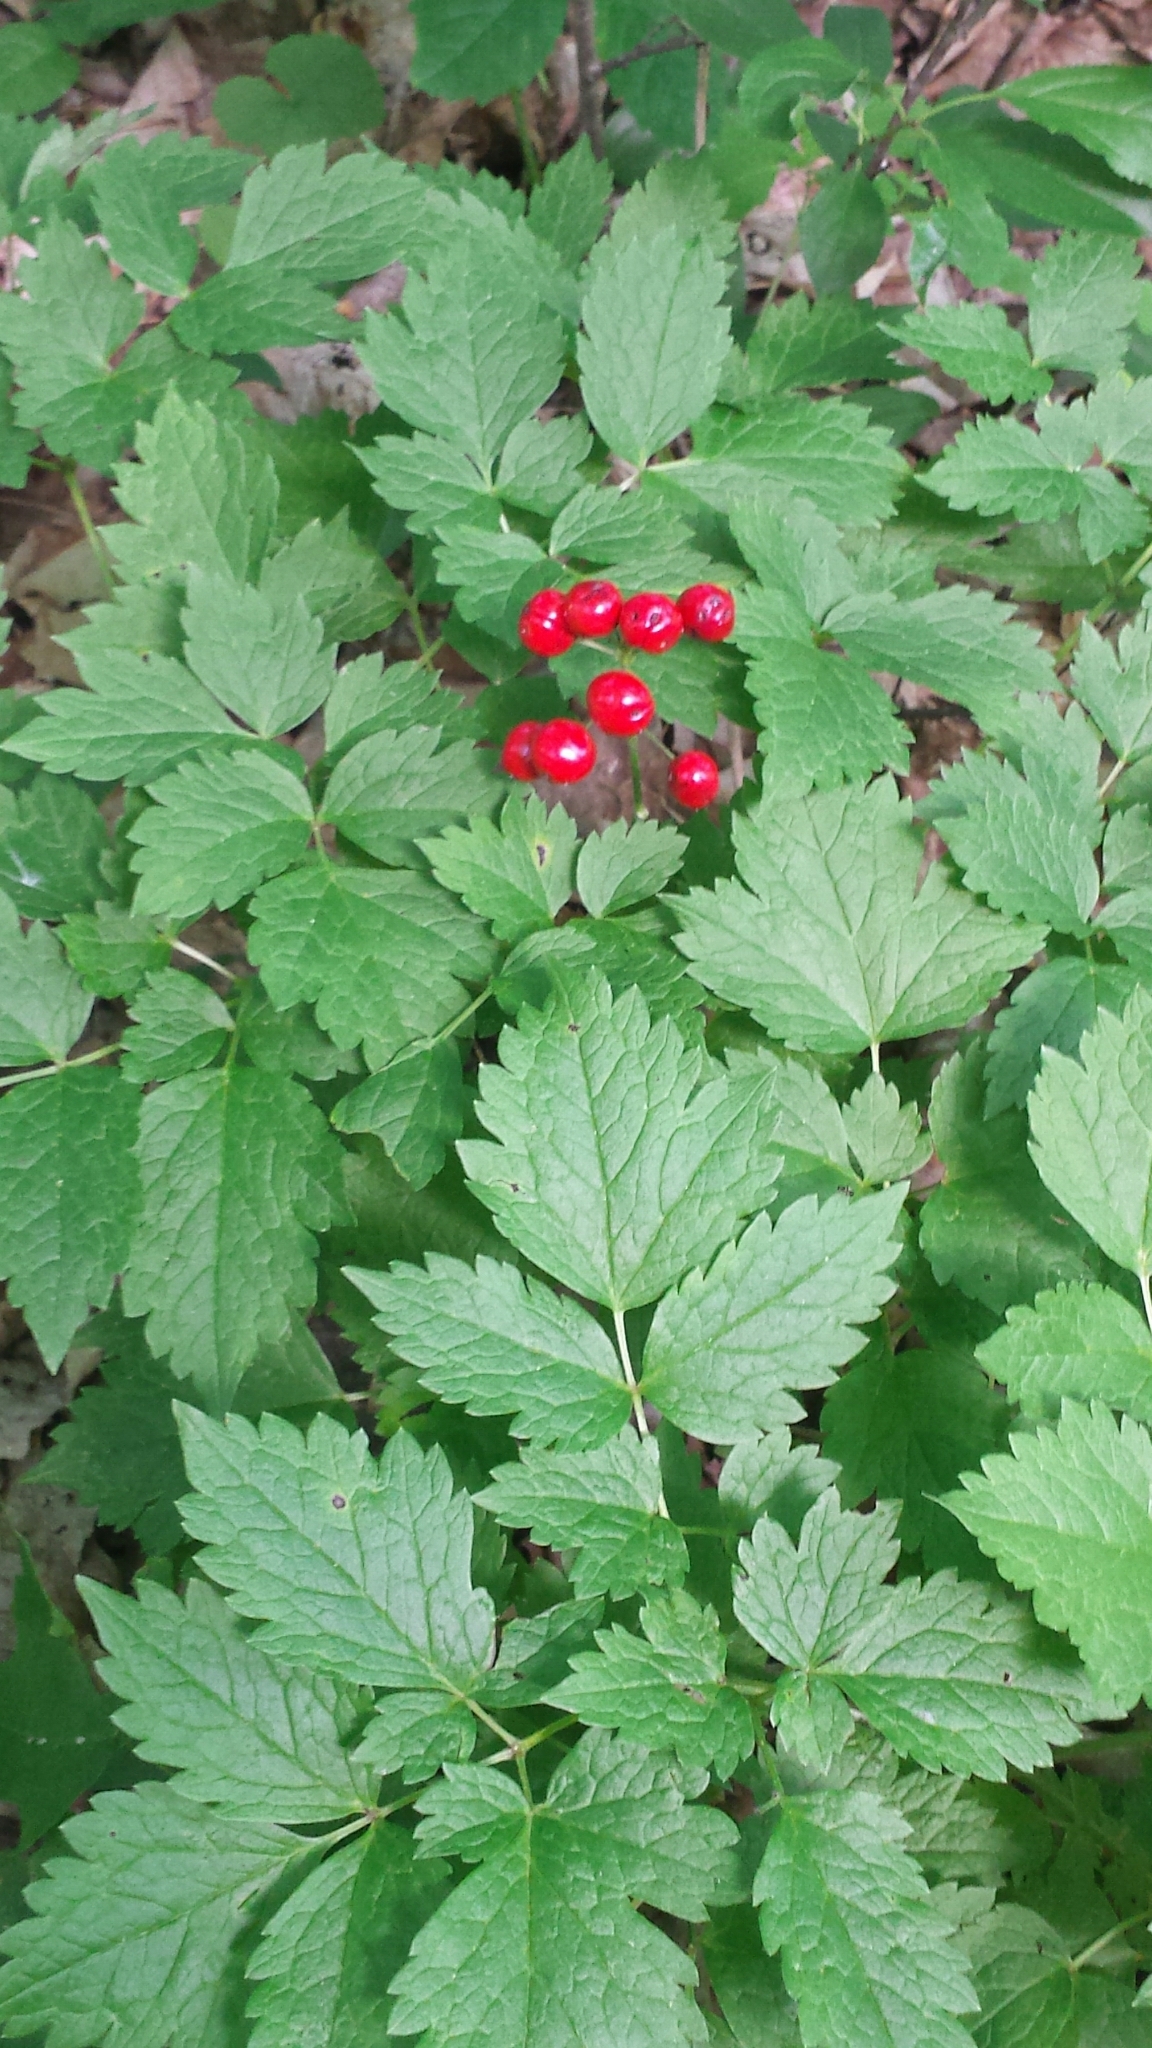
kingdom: Plantae
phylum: Tracheophyta
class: Magnoliopsida
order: Ranunculales
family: Ranunculaceae
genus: Actaea
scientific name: Actaea rubra
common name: Red baneberry
